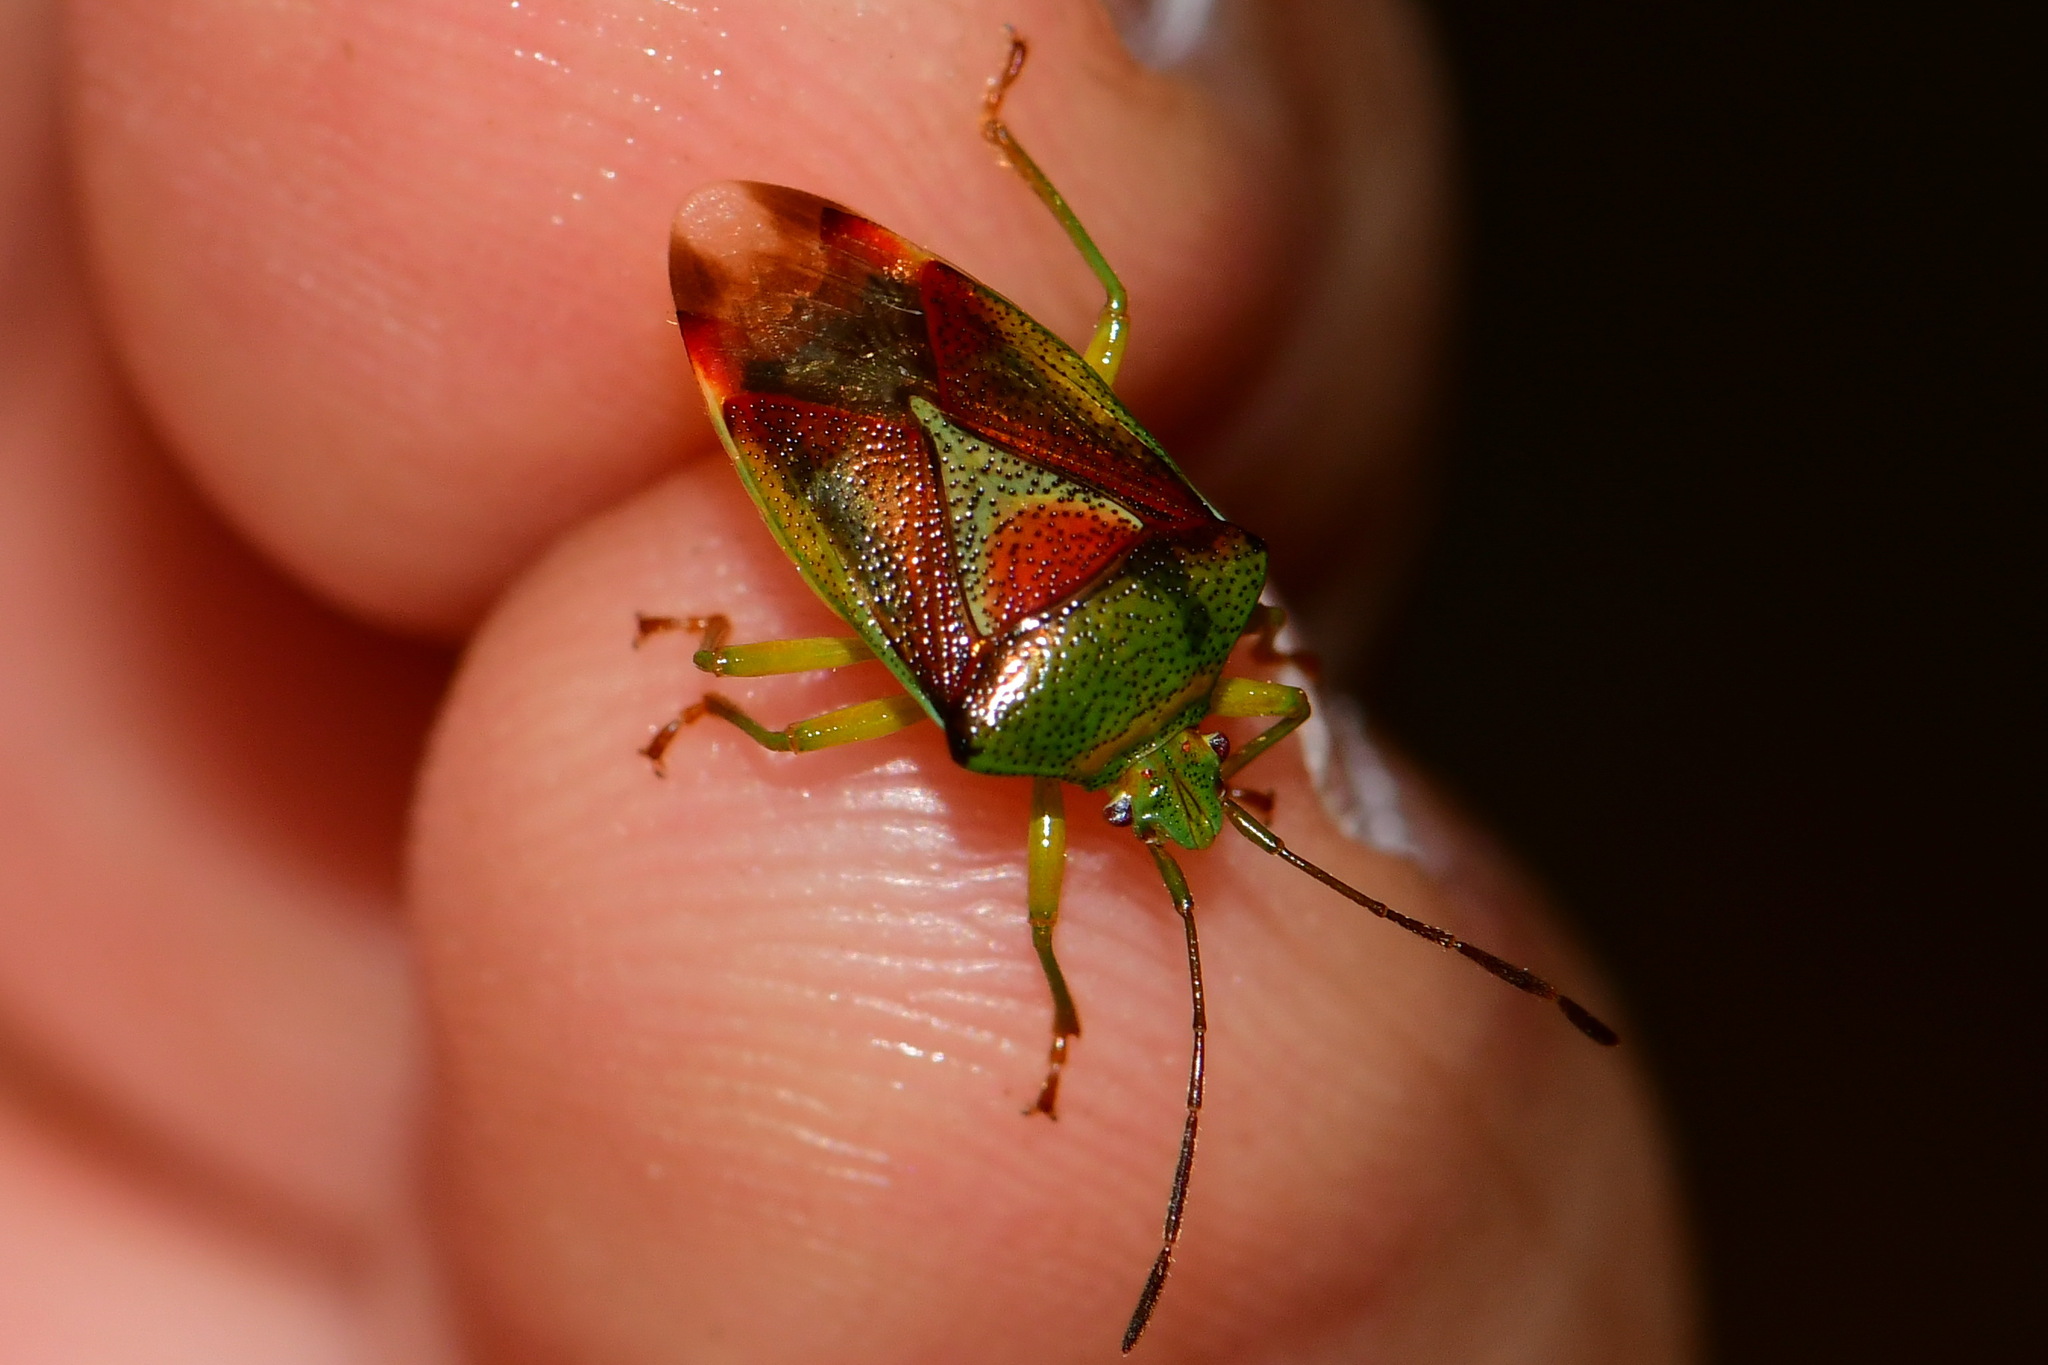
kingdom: Animalia
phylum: Arthropoda
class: Insecta
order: Hemiptera
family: Acanthosomatidae
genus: Elasmostethus
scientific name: Elasmostethus interstinctus
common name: Birch shieldbug
